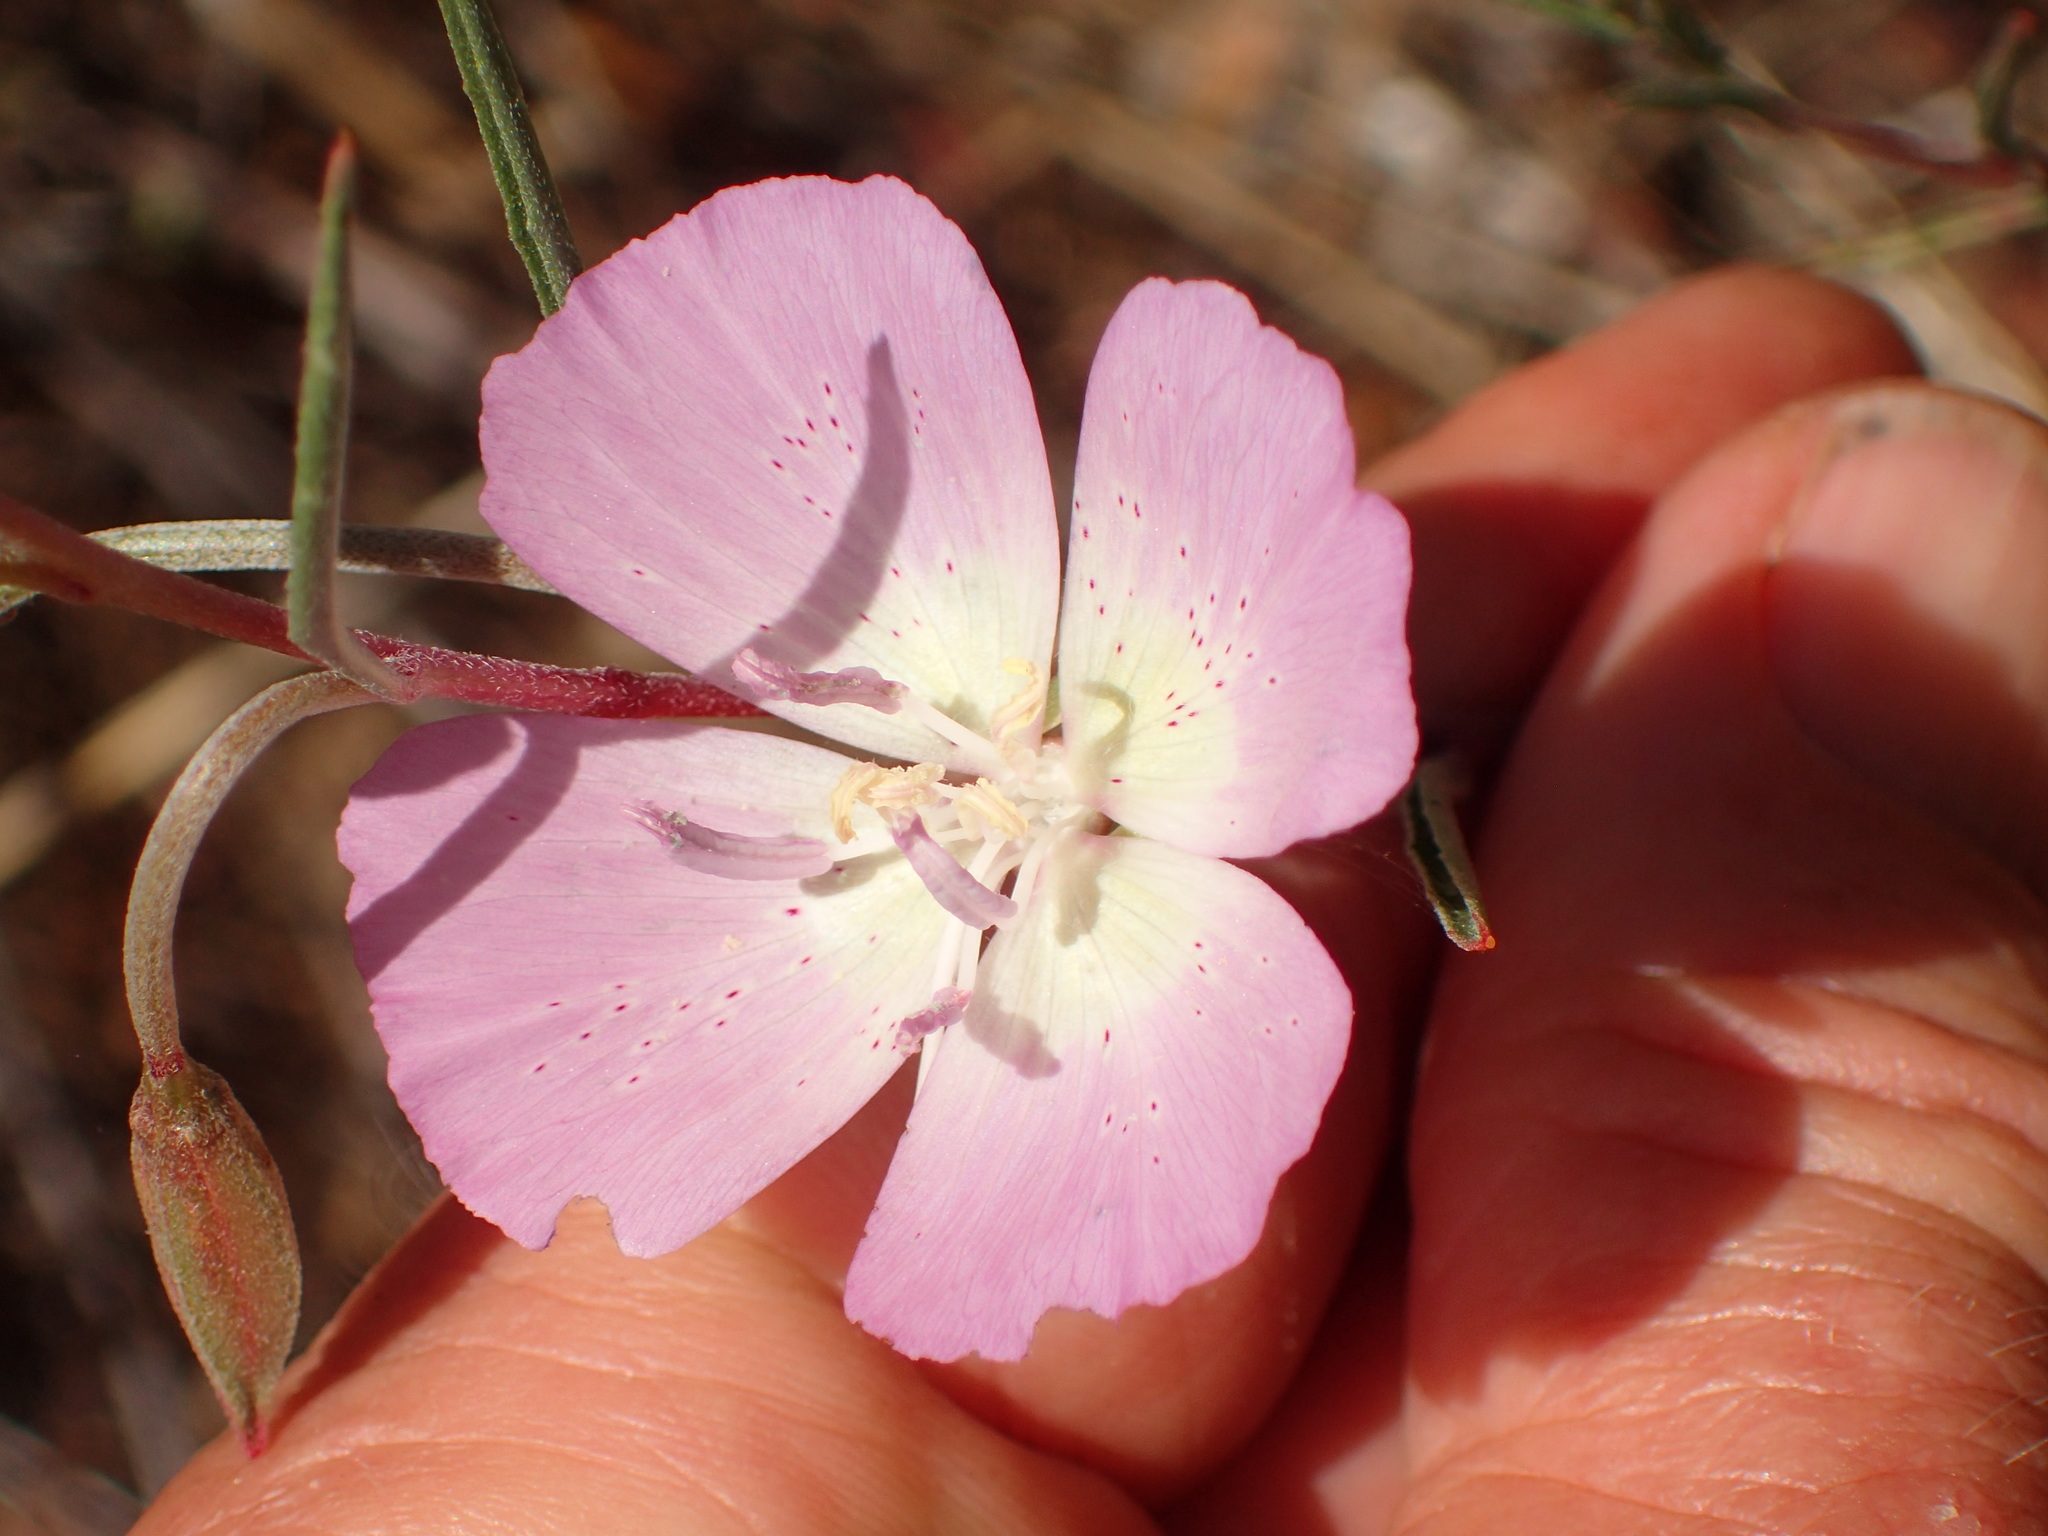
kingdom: Plantae
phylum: Tracheophyta
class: Magnoliopsida
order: Myrtales
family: Onagraceae
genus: Clarkia
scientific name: Clarkia bottae
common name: Punch-bowl godetia
